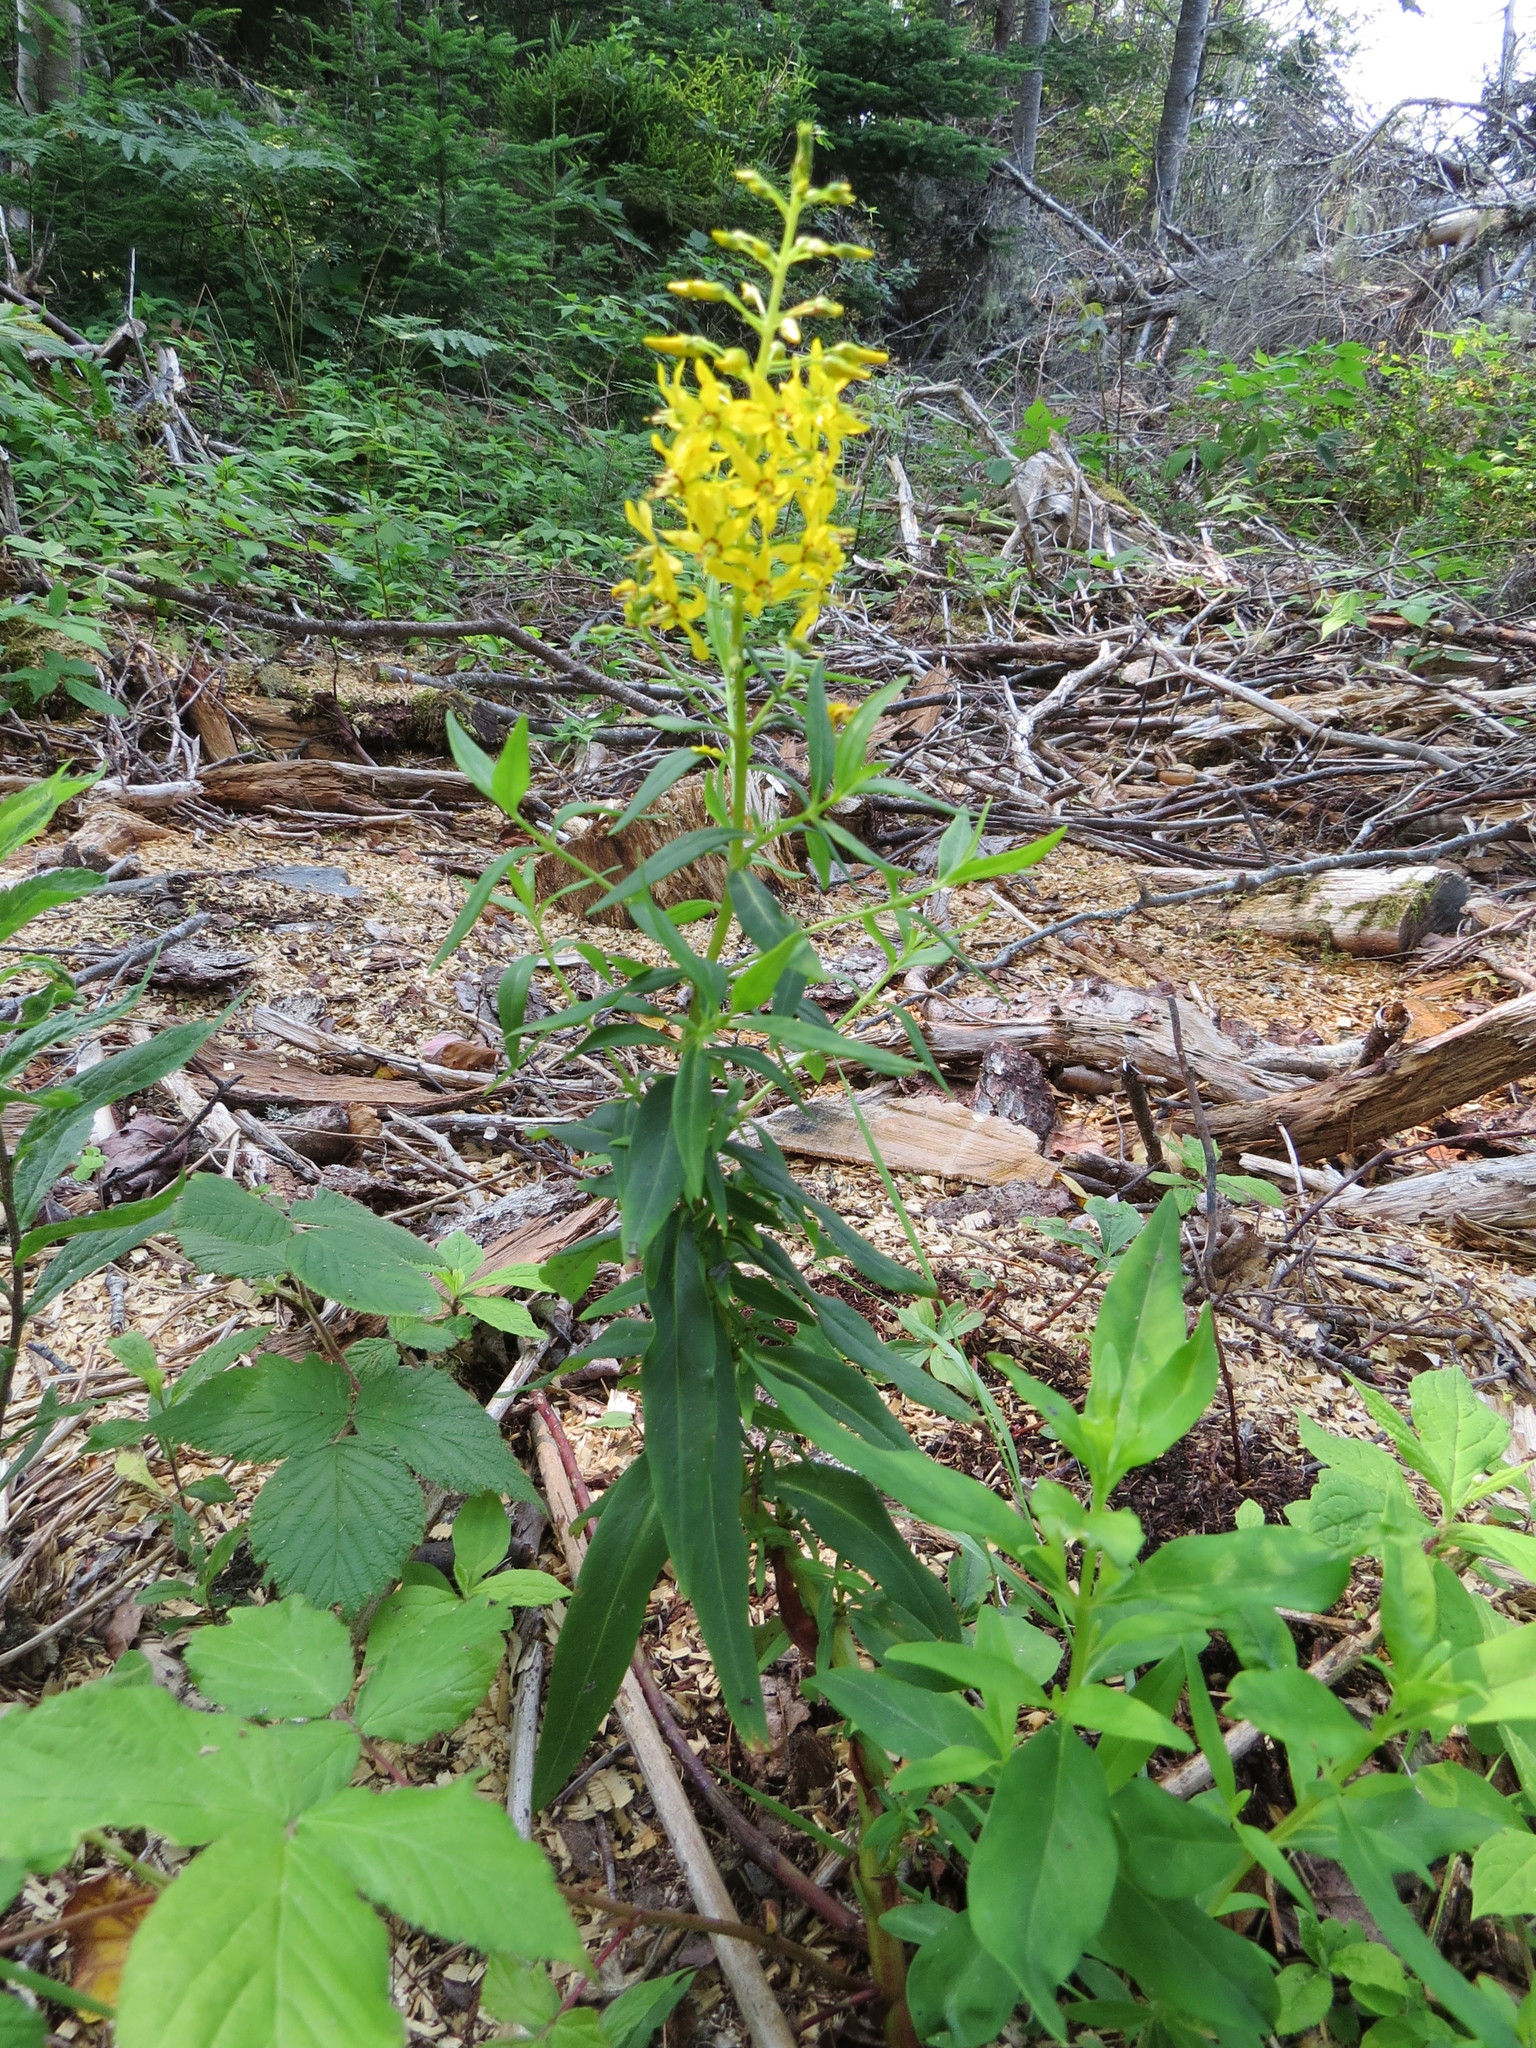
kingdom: Plantae
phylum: Tracheophyta
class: Magnoliopsida
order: Ericales
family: Primulaceae
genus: Lysimachia
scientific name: Lysimachia terrestris
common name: Lake loosestrife
